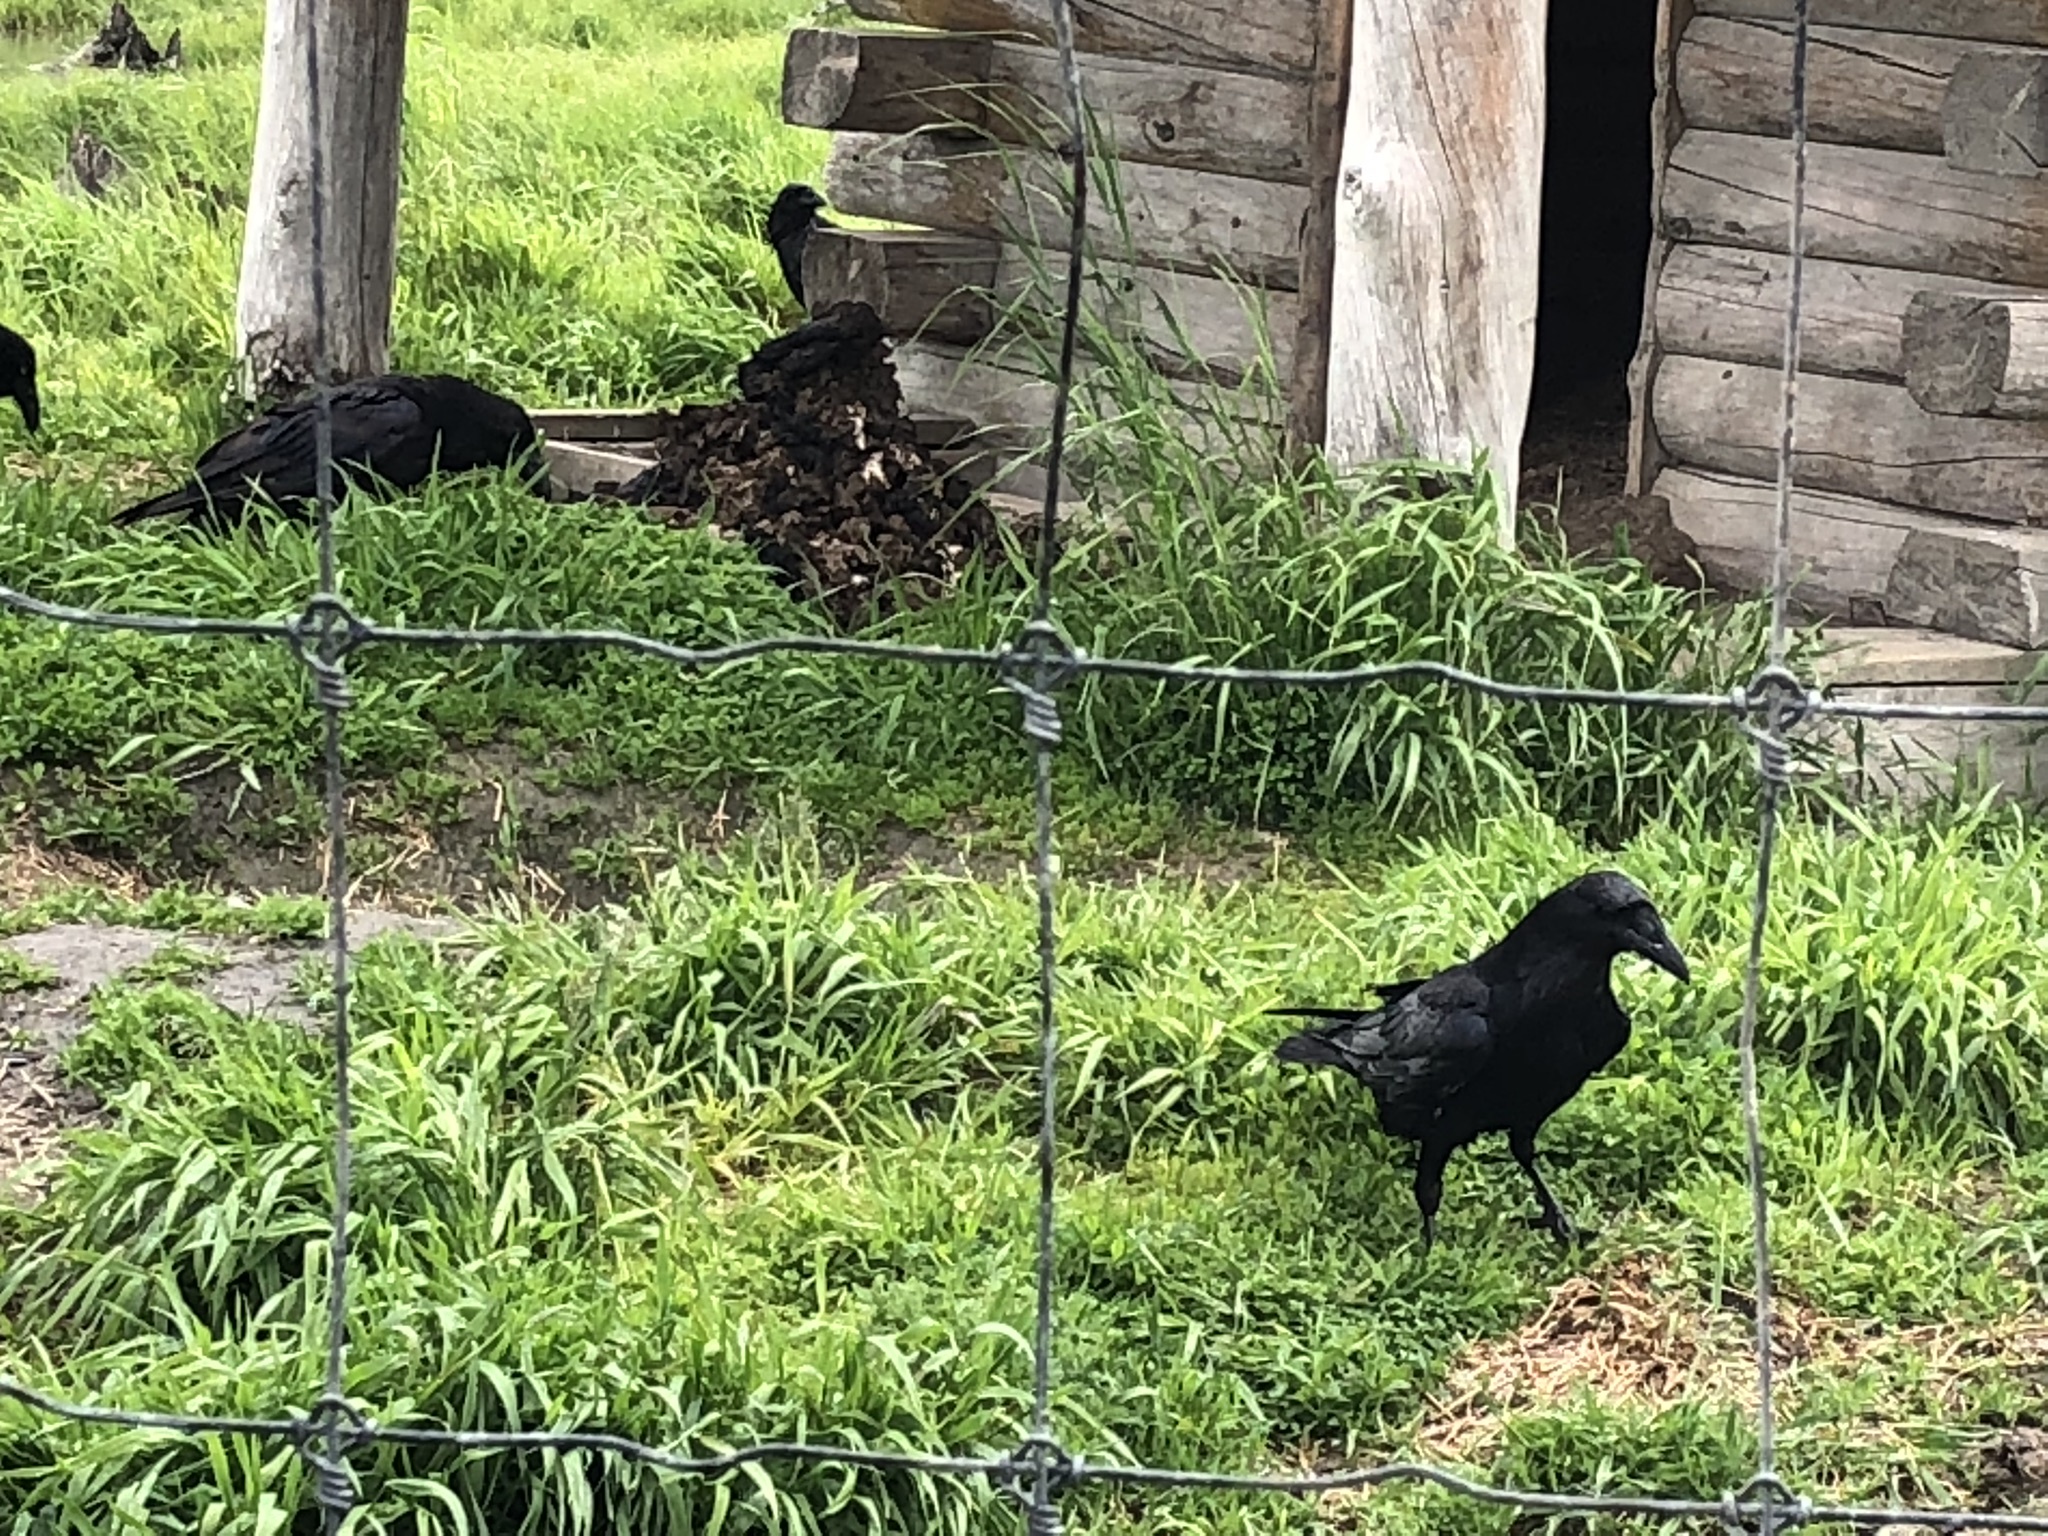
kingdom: Animalia
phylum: Chordata
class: Aves
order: Passeriformes
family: Corvidae
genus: Corvus
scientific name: Corvus corax
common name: Common raven
